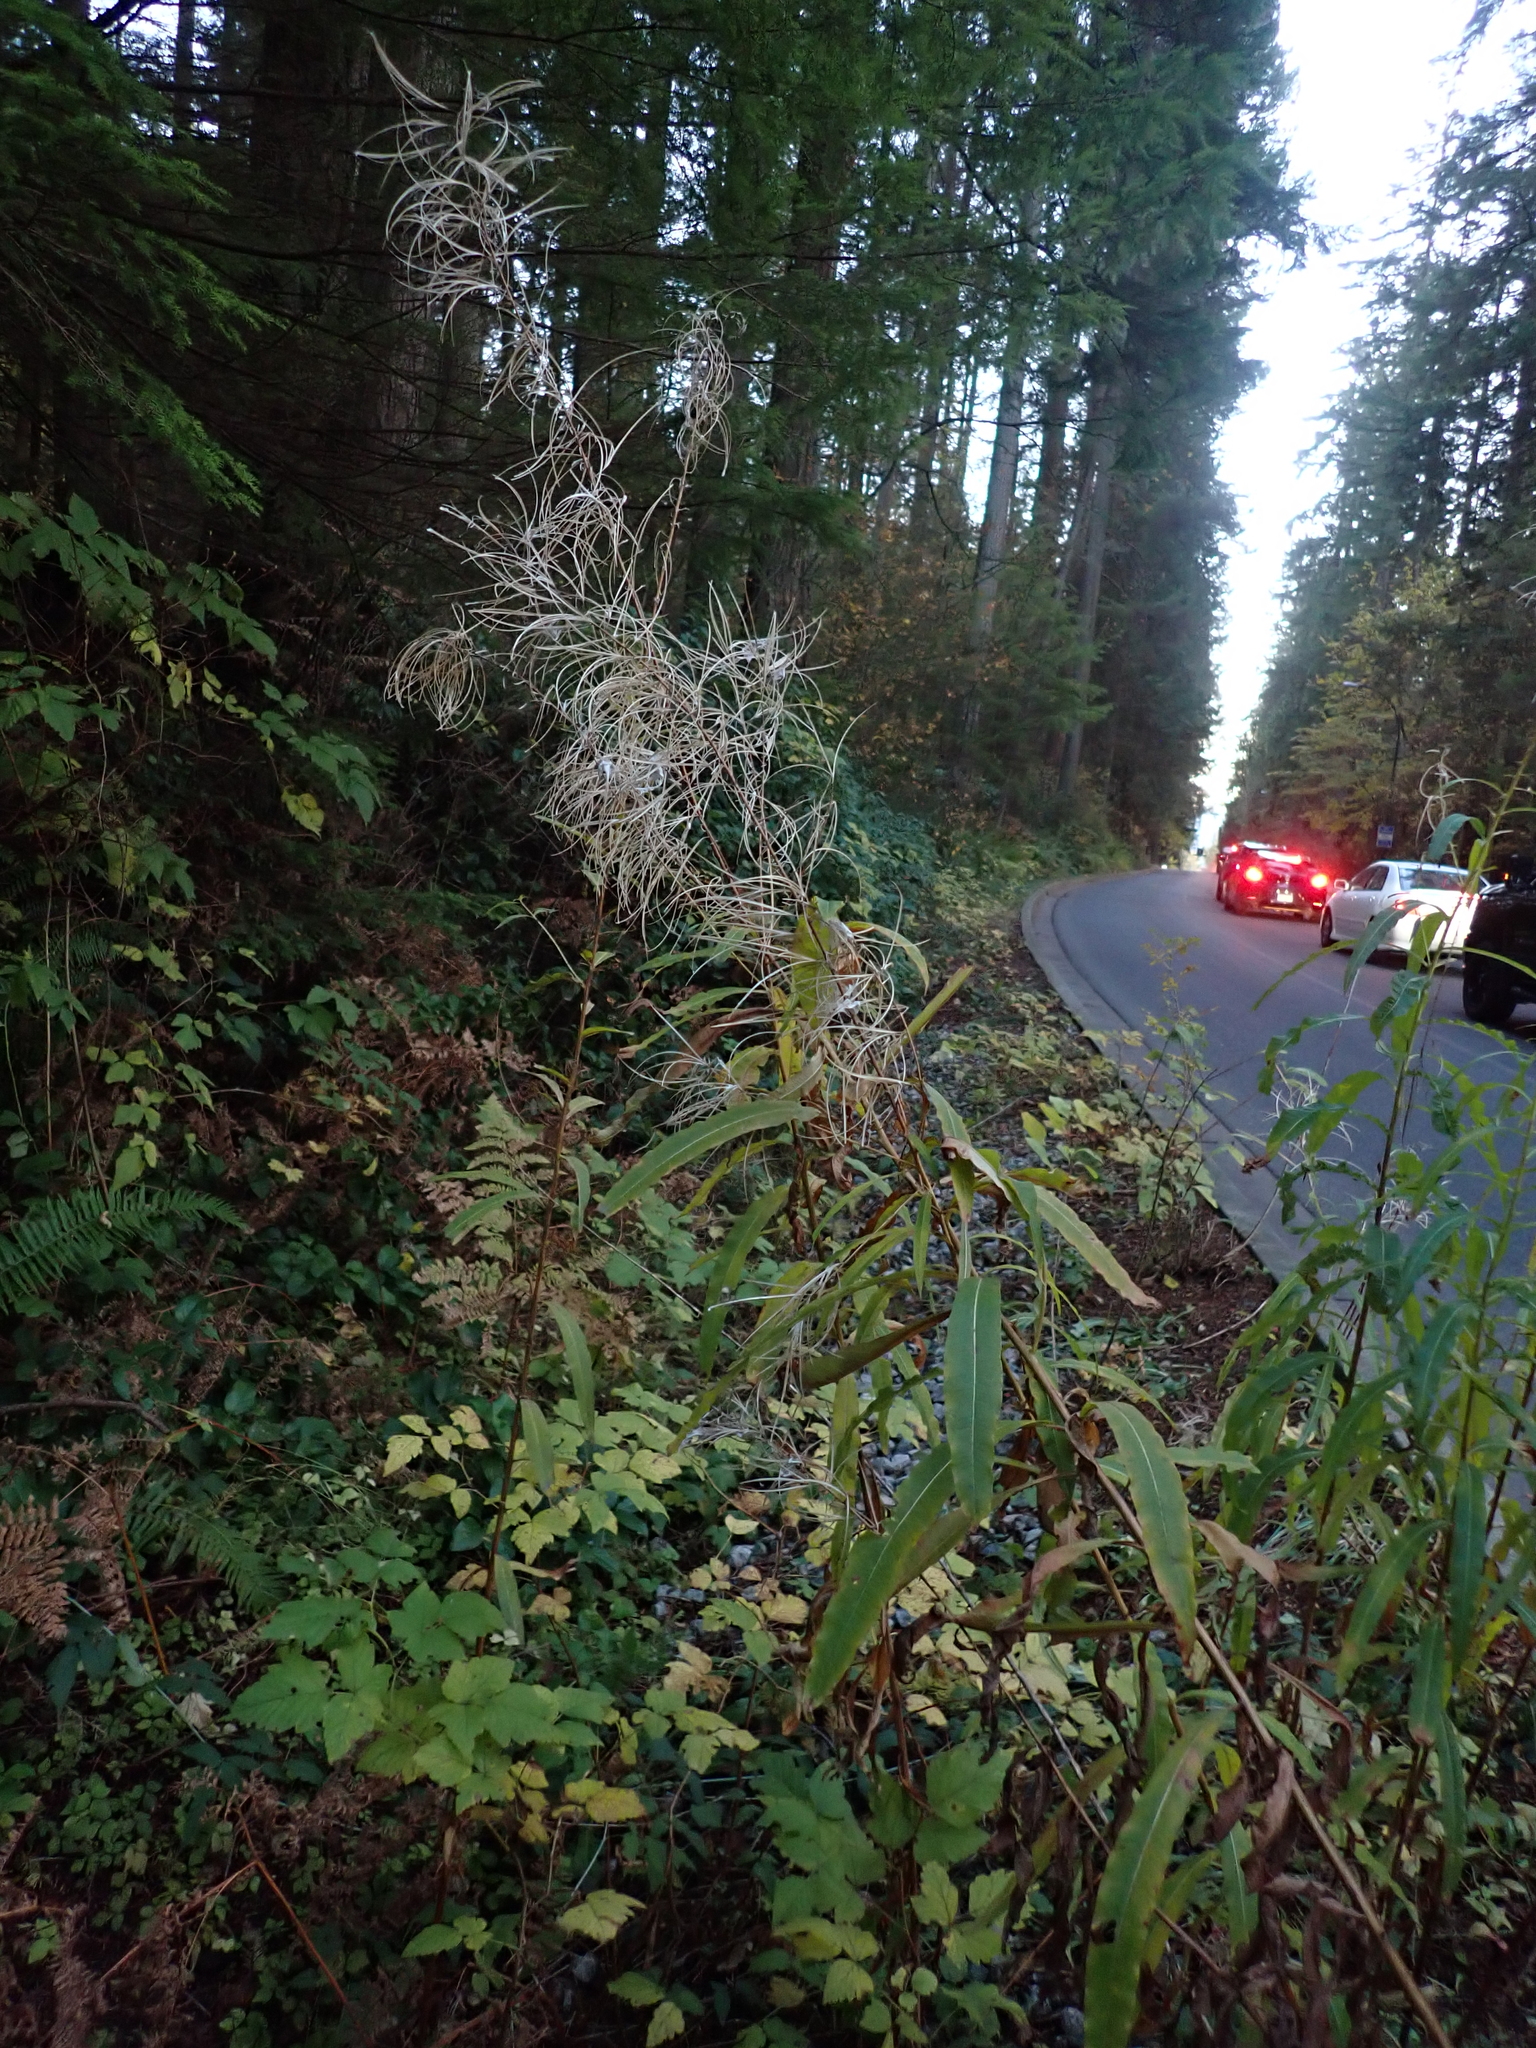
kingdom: Plantae
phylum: Tracheophyta
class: Magnoliopsida
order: Myrtales
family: Onagraceae
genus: Chamaenerion
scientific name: Chamaenerion angustifolium
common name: Fireweed
